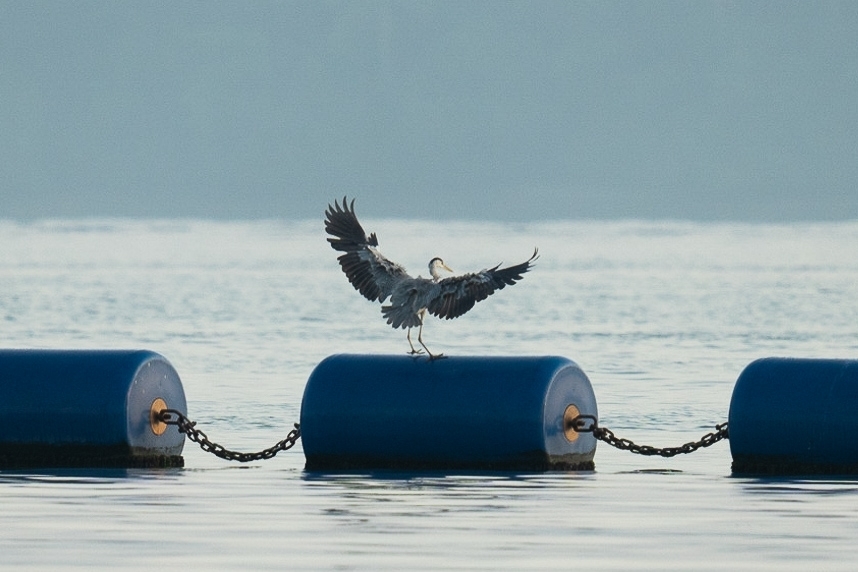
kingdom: Animalia
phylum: Chordata
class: Aves
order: Pelecaniformes
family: Ardeidae
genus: Ardea
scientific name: Ardea cinerea
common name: Grey heron
